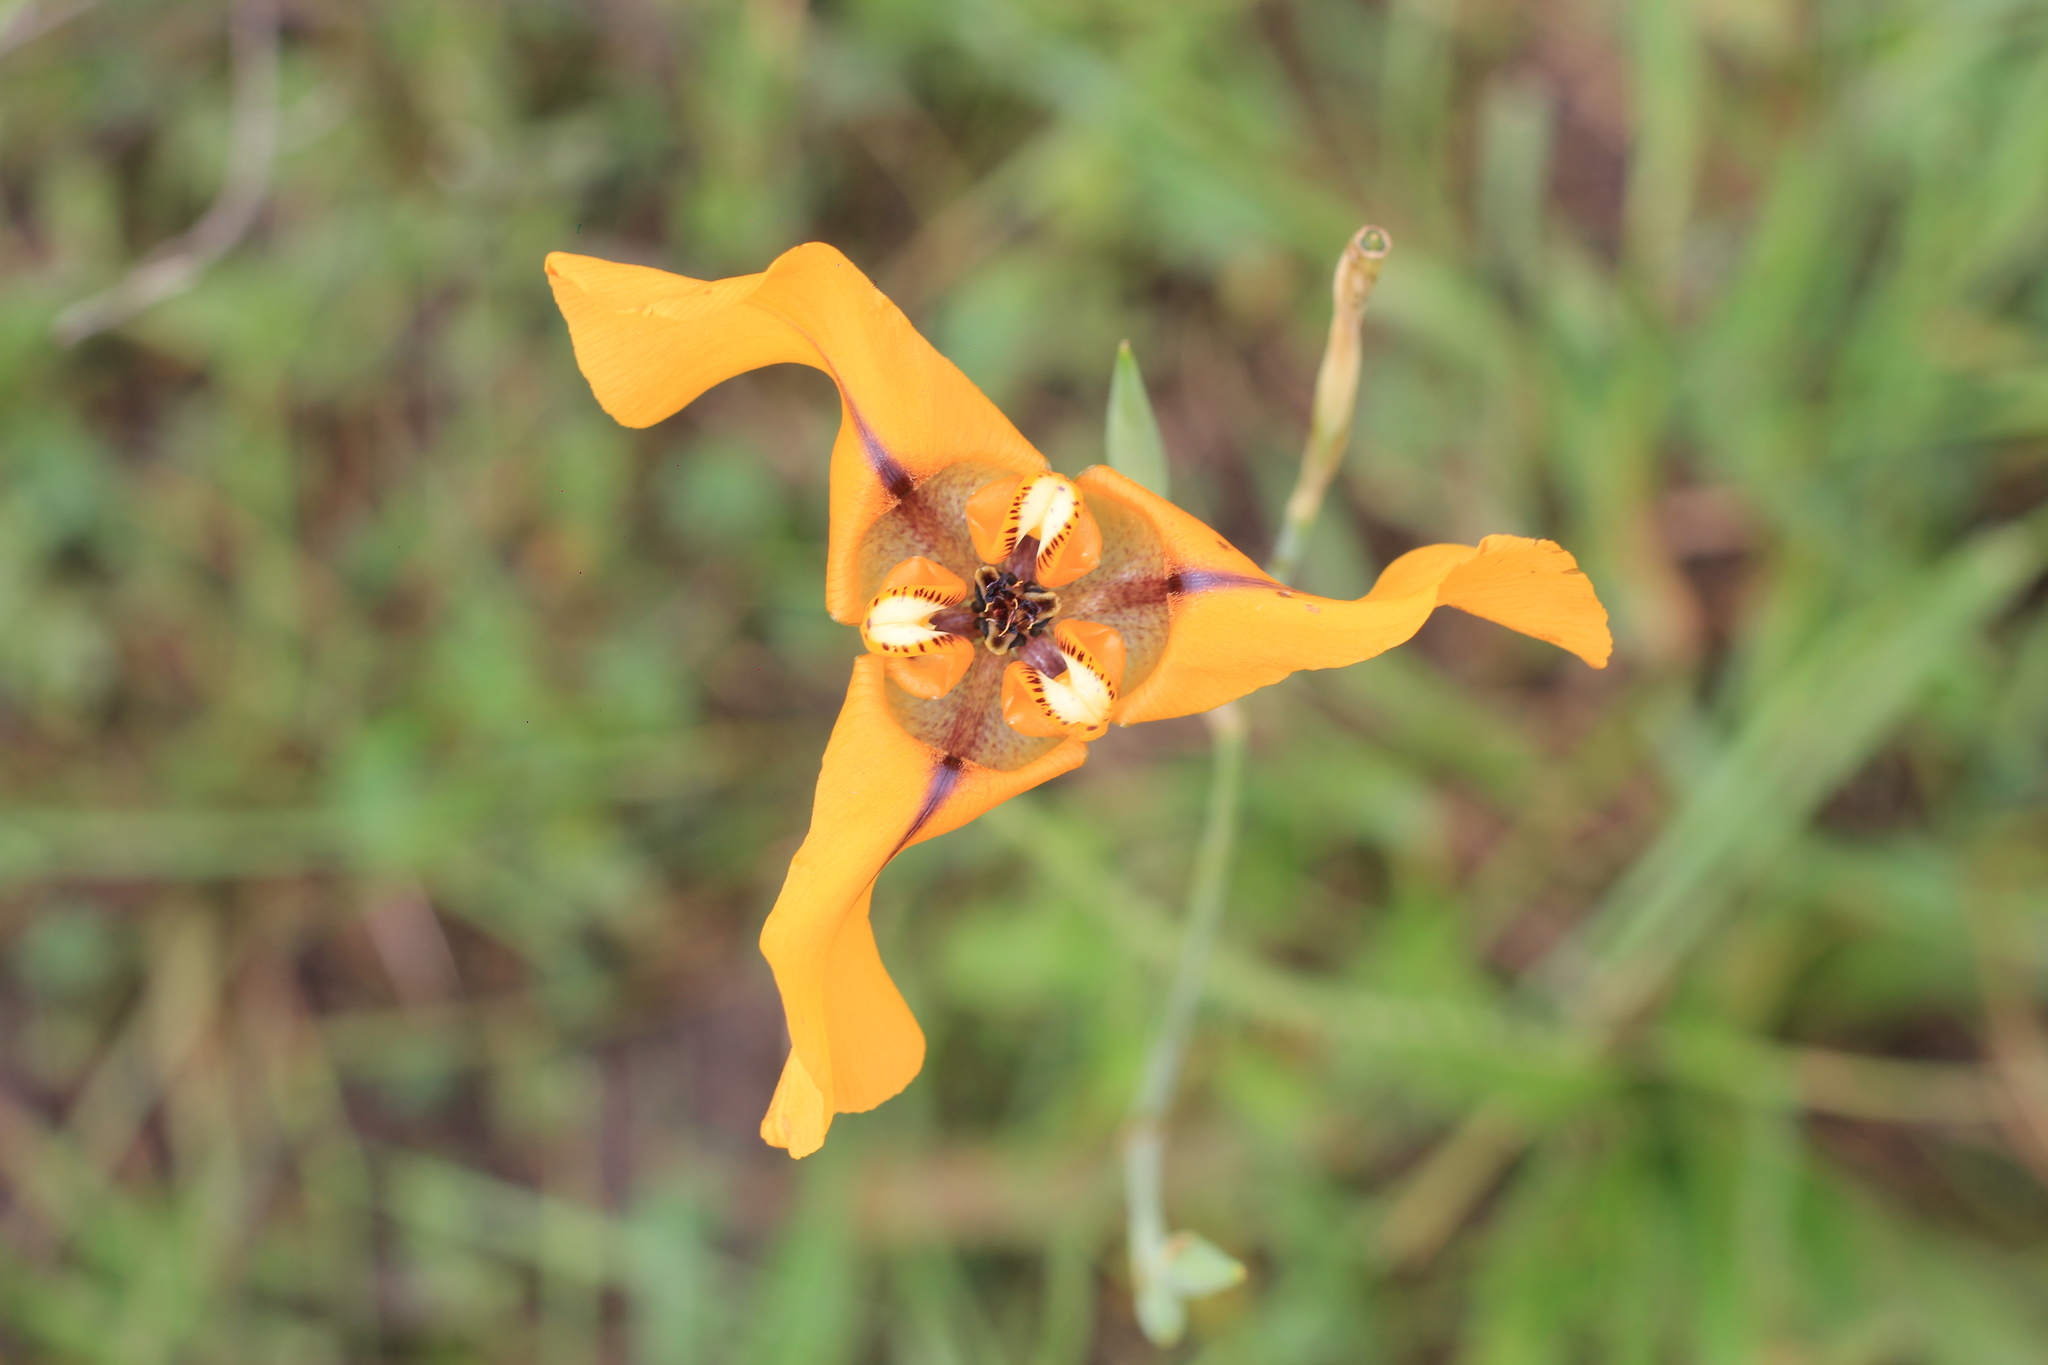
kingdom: Plantae
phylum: Tracheophyta
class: Liliopsida
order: Asparagales
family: Iridaceae
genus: Cypella
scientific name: Cypella herbertii
